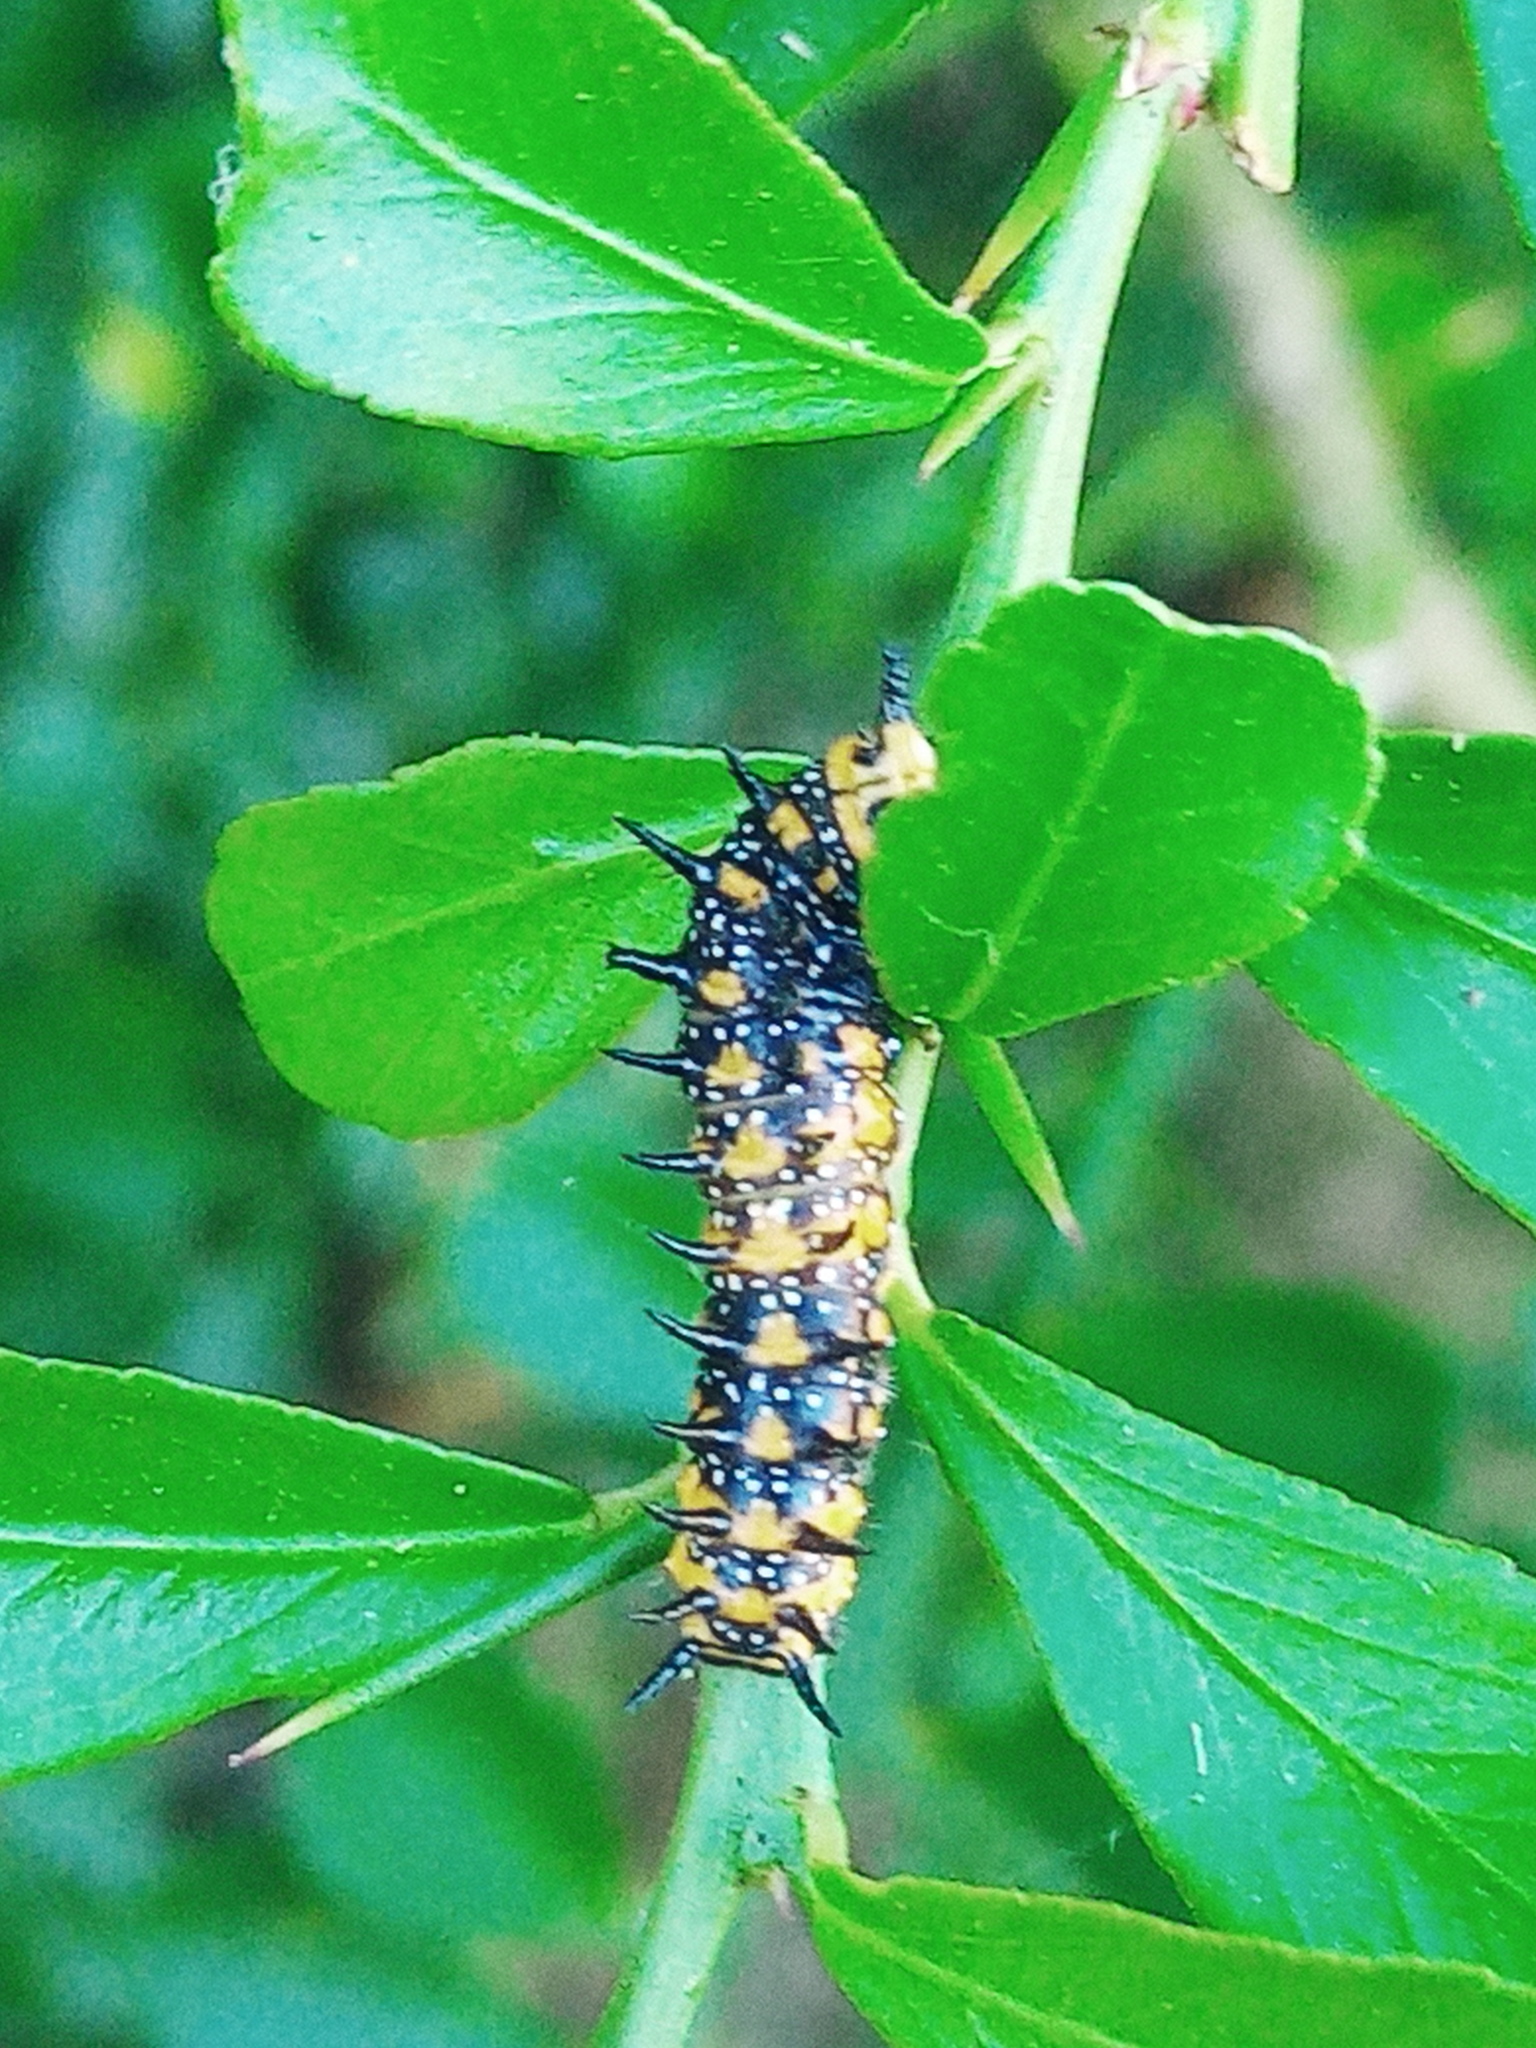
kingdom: Animalia
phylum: Arthropoda
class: Insecta
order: Lepidoptera
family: Papilionidae
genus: Papilio
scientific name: Papilio anactus
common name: Dingy swallowtail
